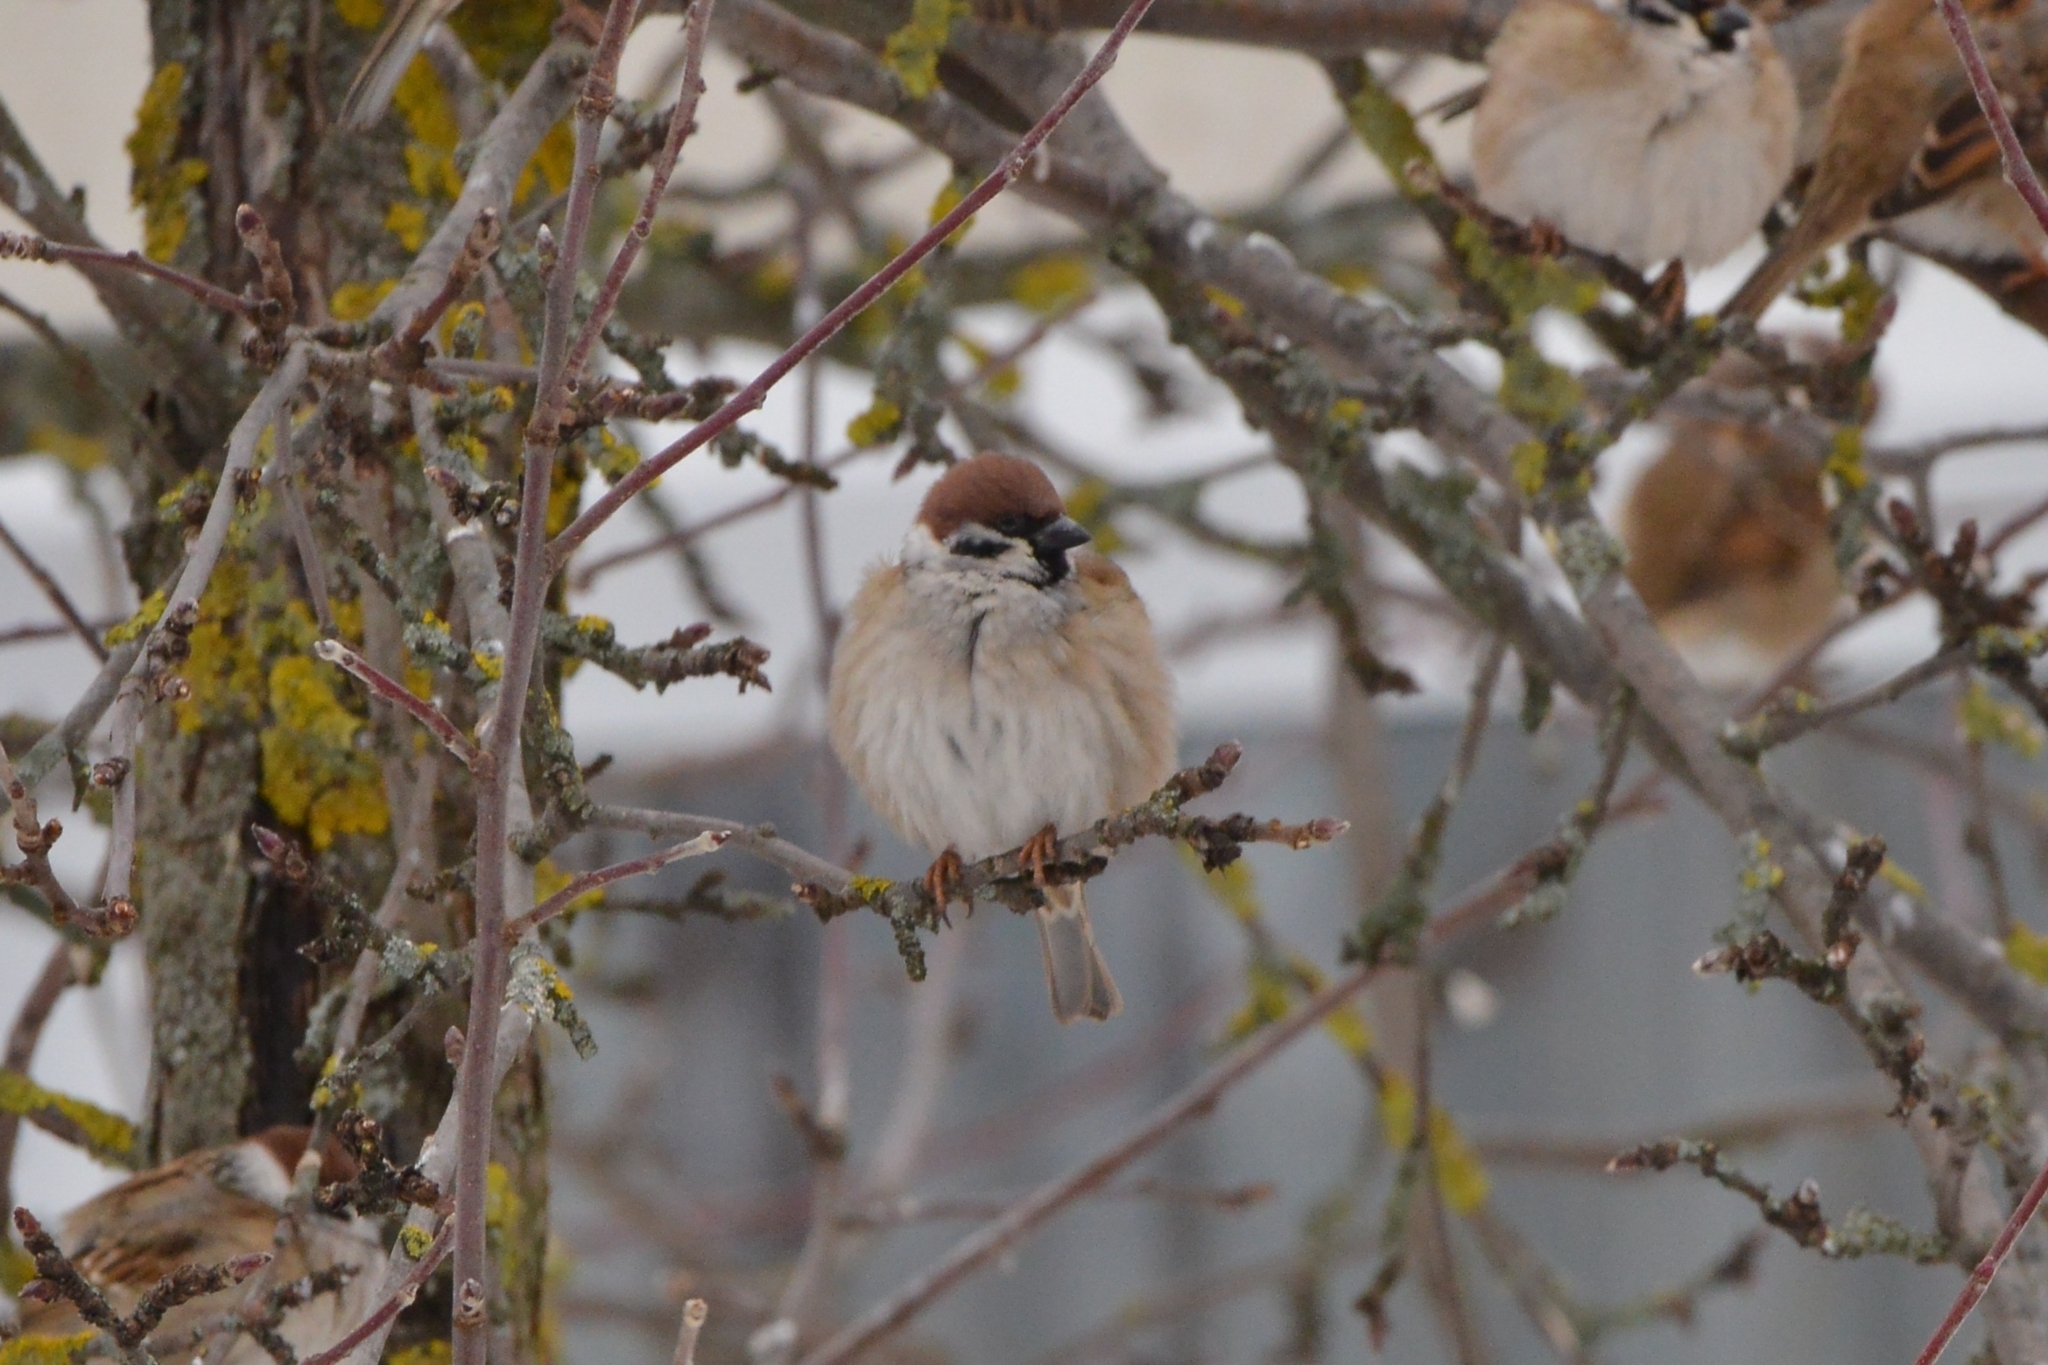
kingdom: Animalia
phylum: Chordata
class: Aves
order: Passeriformes
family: Passeridae
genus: Passer
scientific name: Passer montanus
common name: Eurasian tree sparrow
